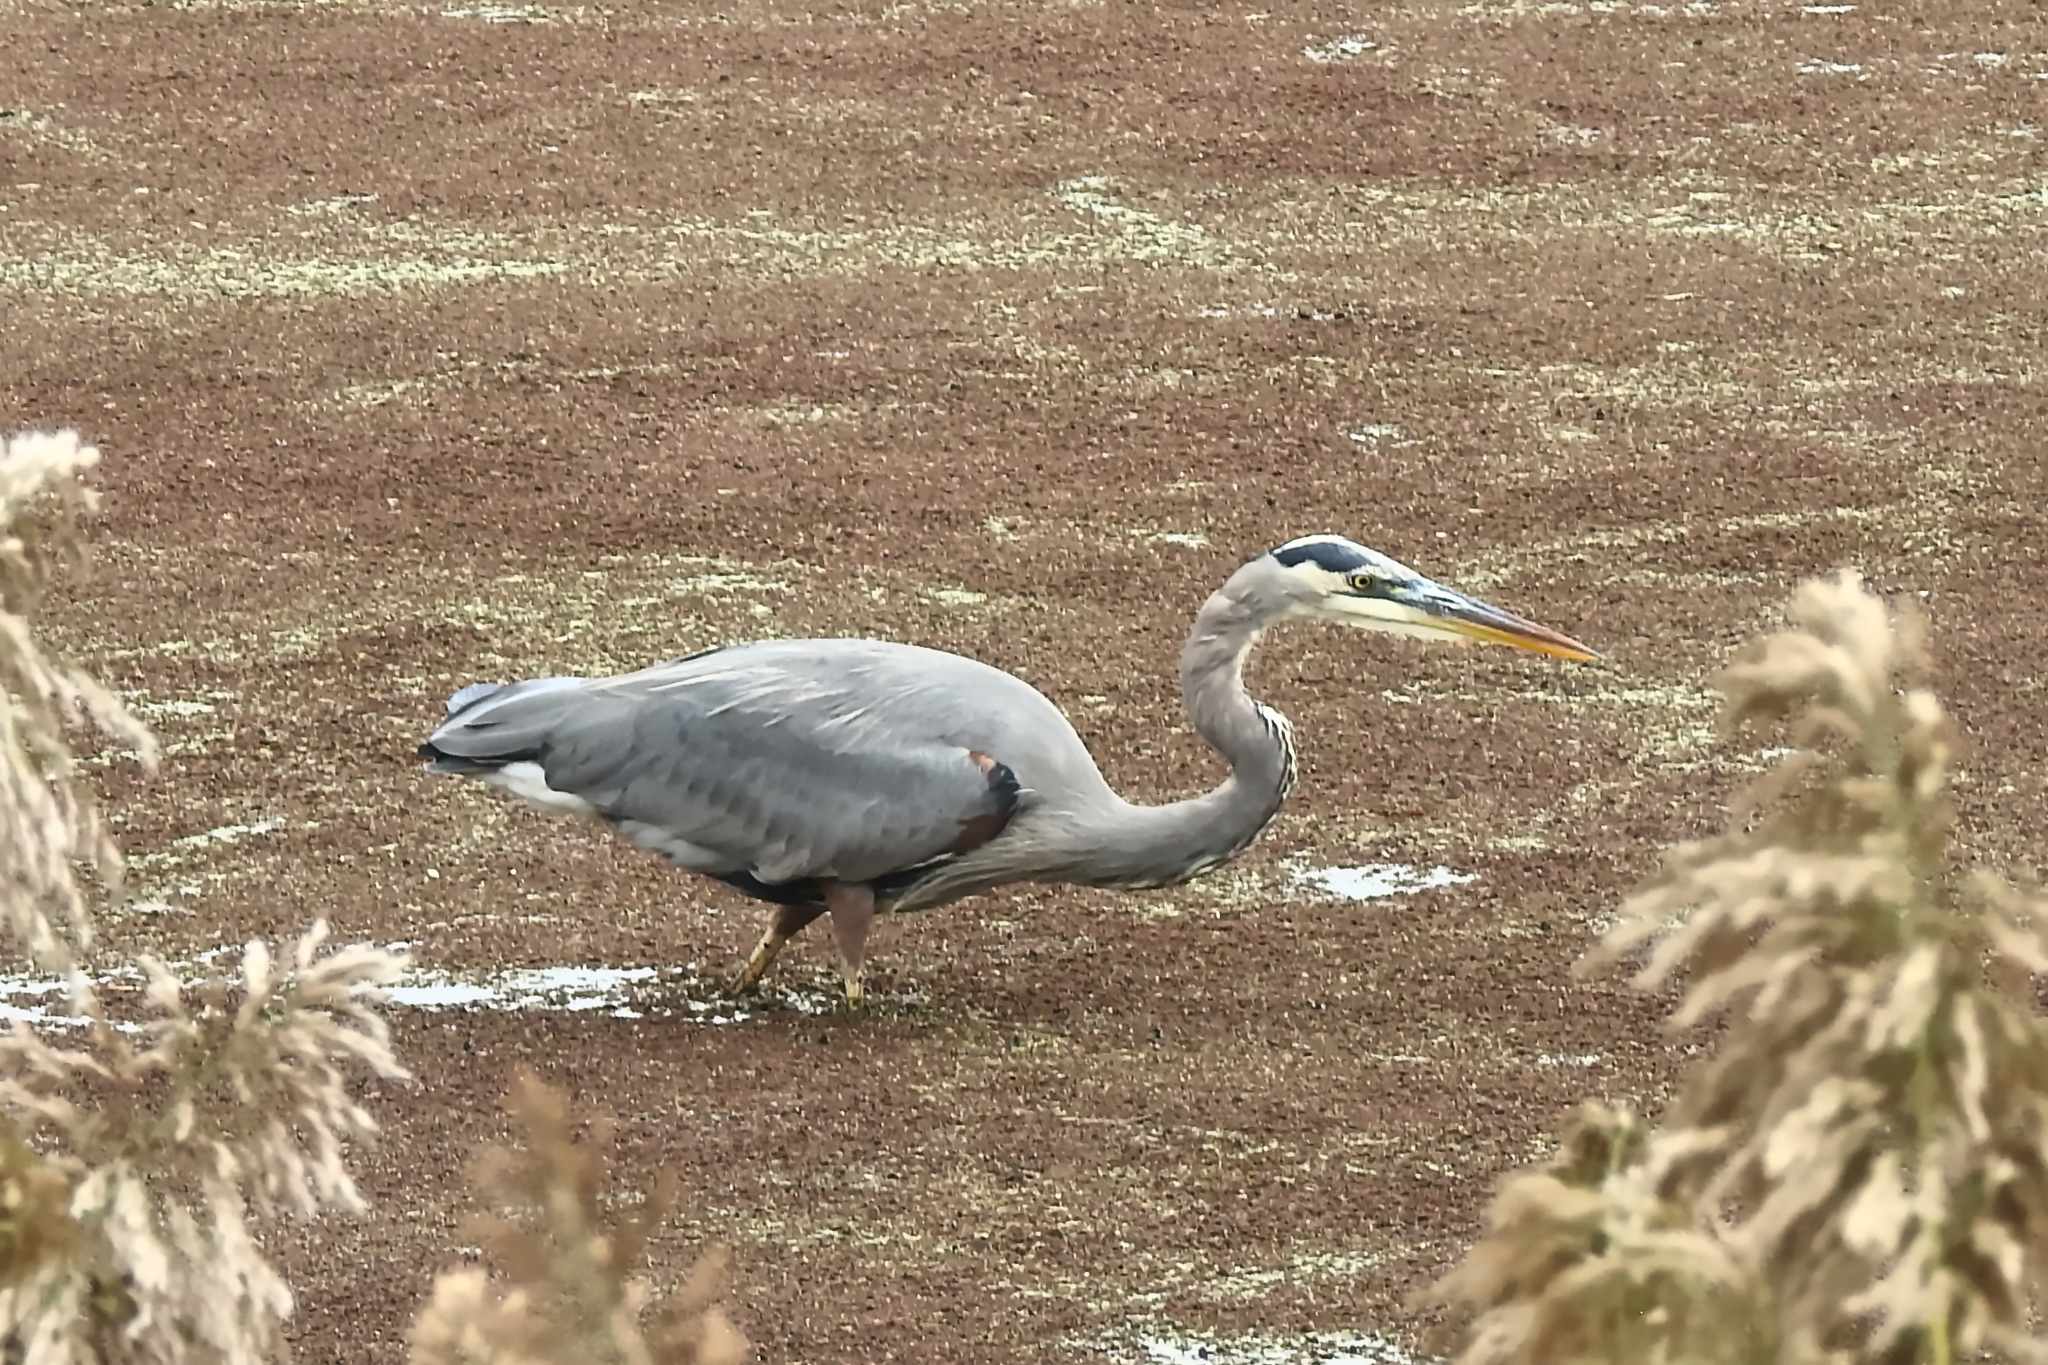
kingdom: Animalia
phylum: Chordata
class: Aves
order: Pelecaniformes
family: Ardeidae
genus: Ardea
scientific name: Ardea herodias
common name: Great blue heron
